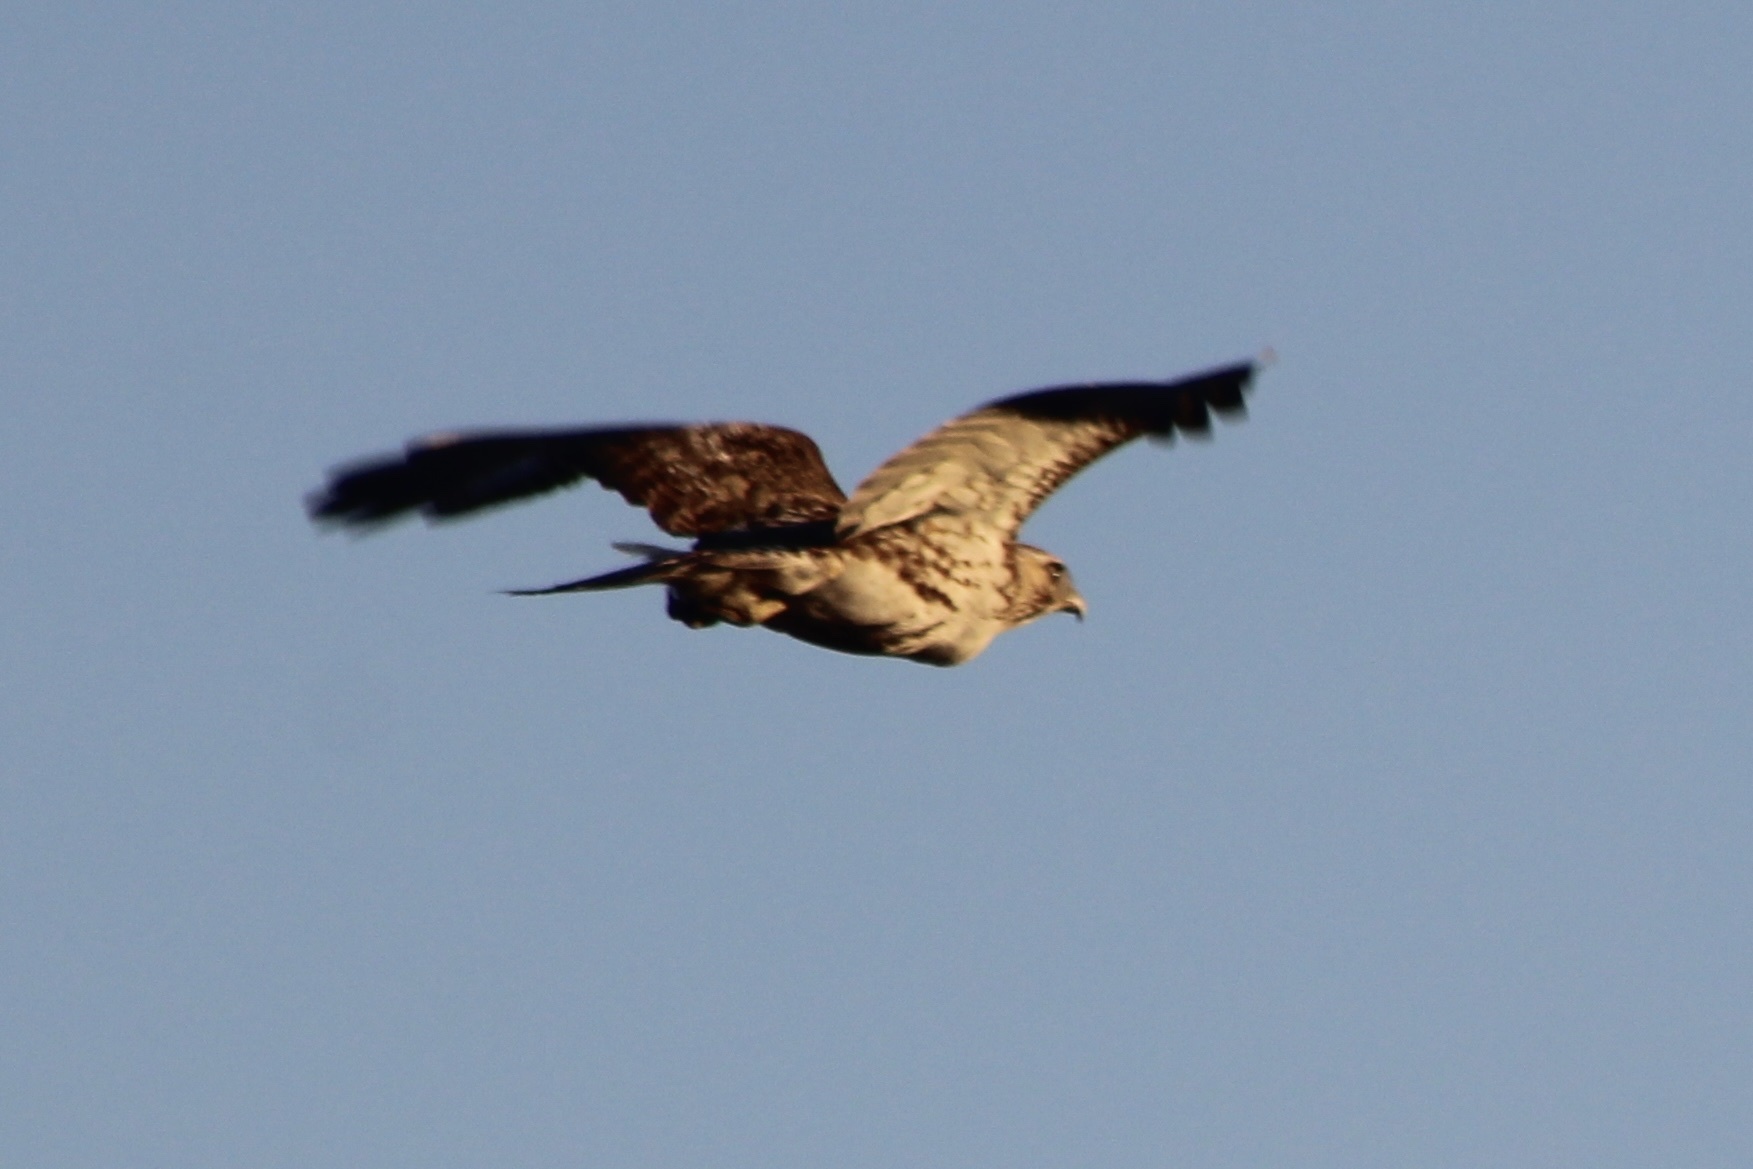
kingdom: Animalia
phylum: Chordata
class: Aves
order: Accipitriformes
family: Accipitridae
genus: Buteo
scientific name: Buteo jamaicensis
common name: Red-tailed hawk
